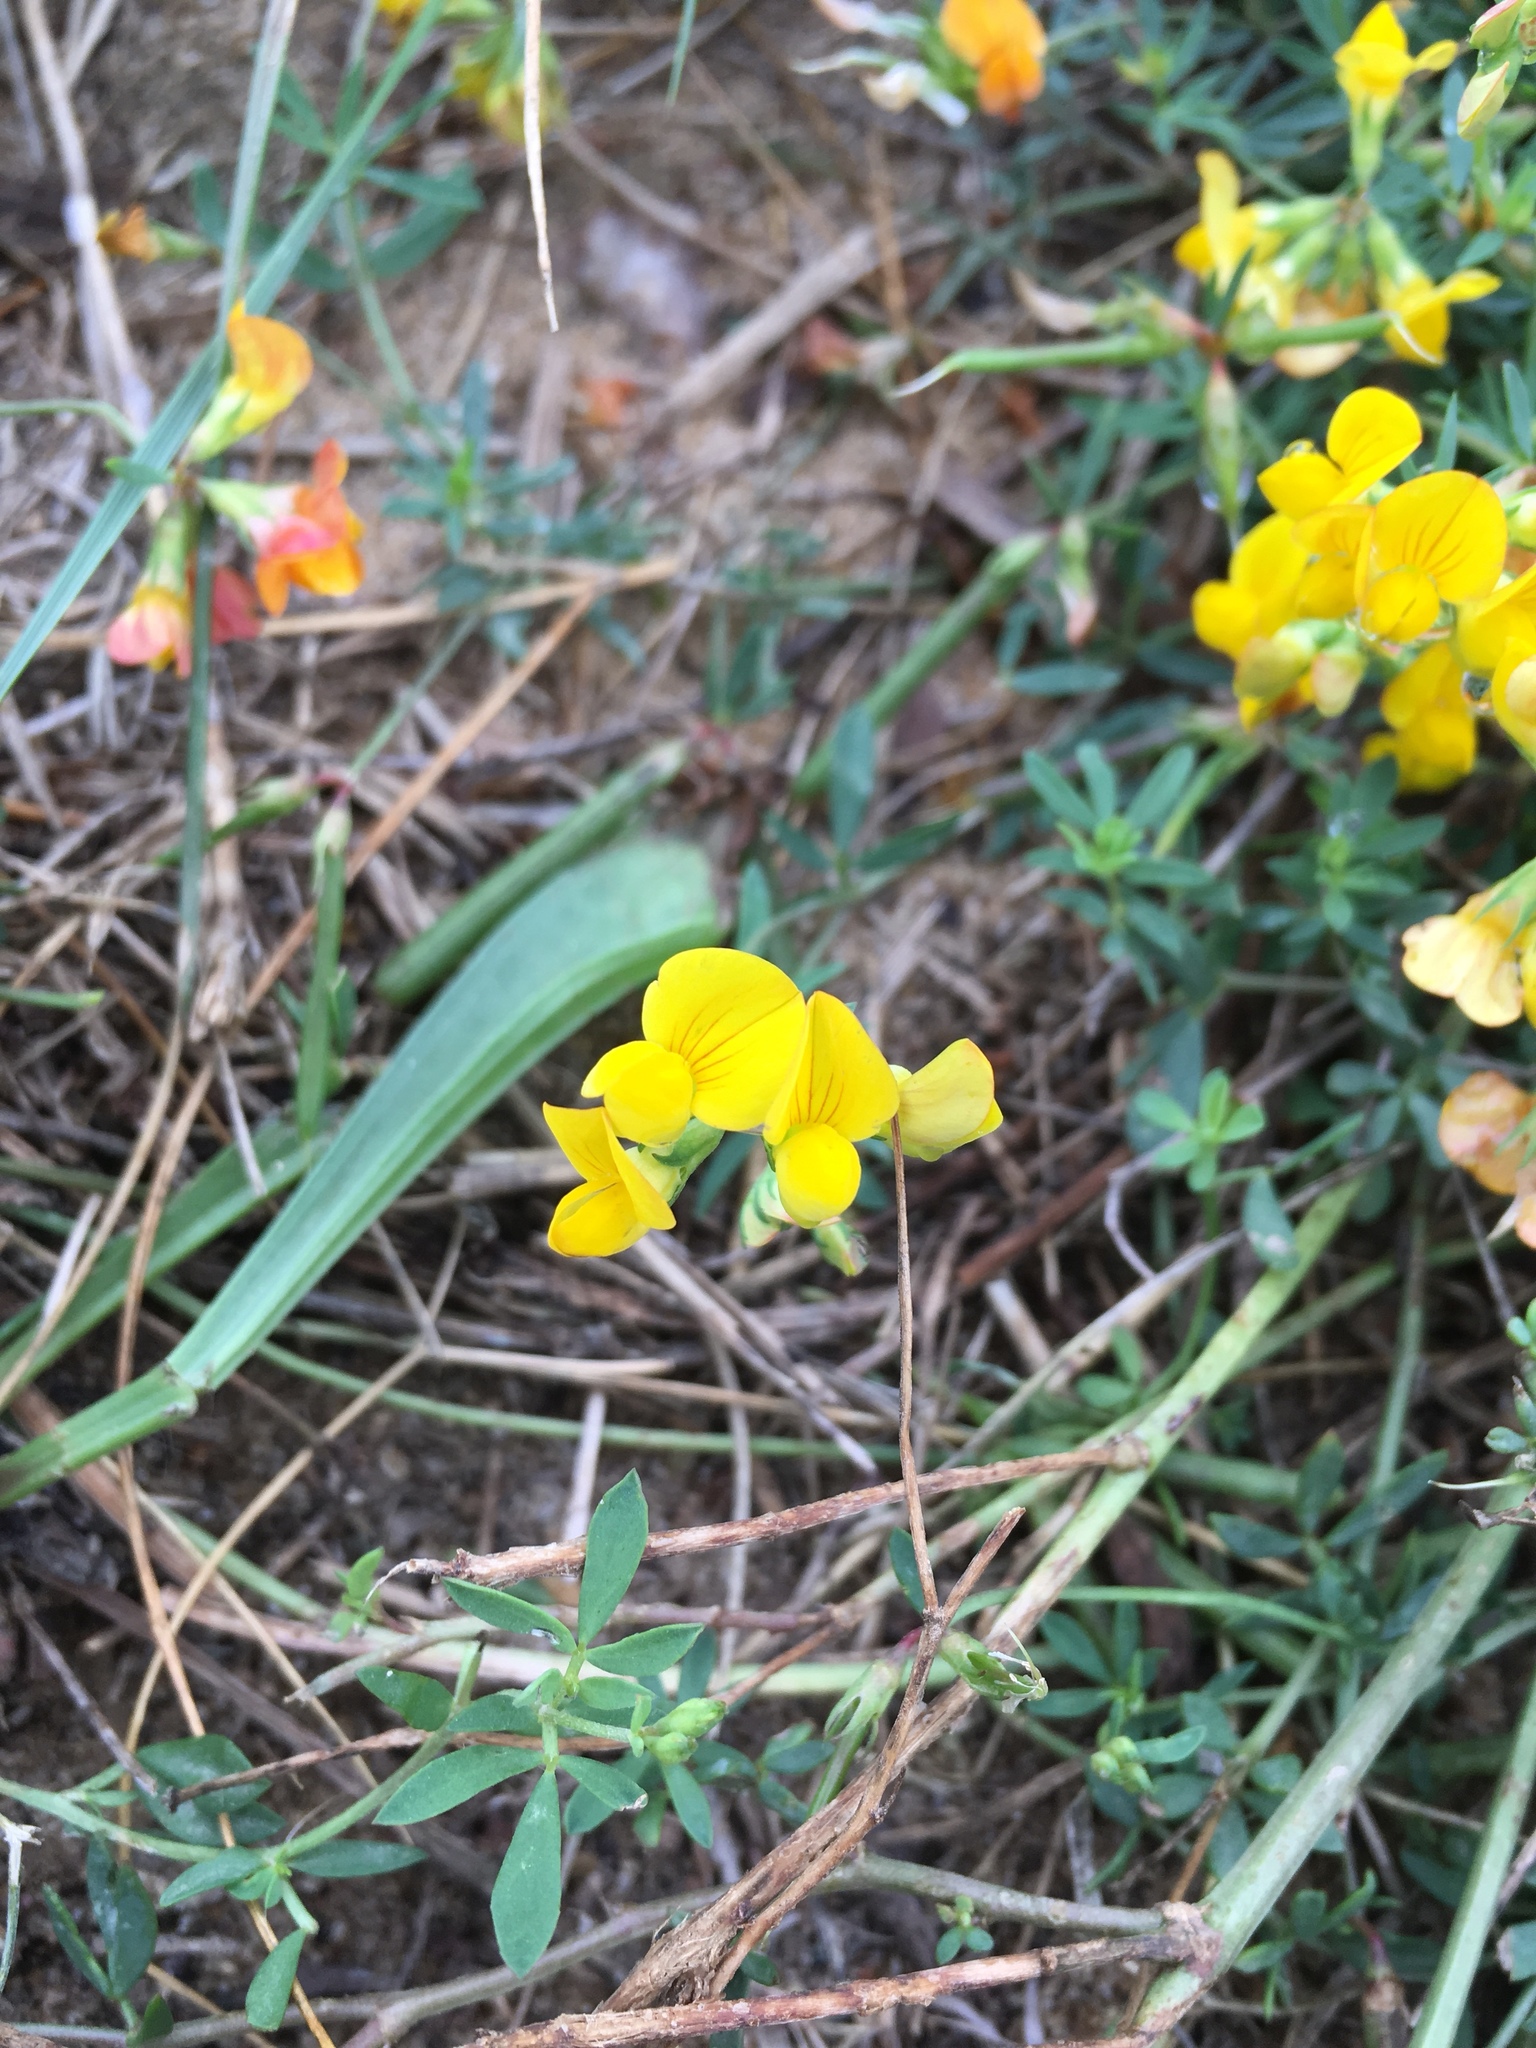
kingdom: Plantae
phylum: Tracheophyta
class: Magnoliopsida
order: Fabales
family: Fabaceae
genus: Lotus
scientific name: Lotus corniculatus
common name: Common bird's-foot-trefoil
